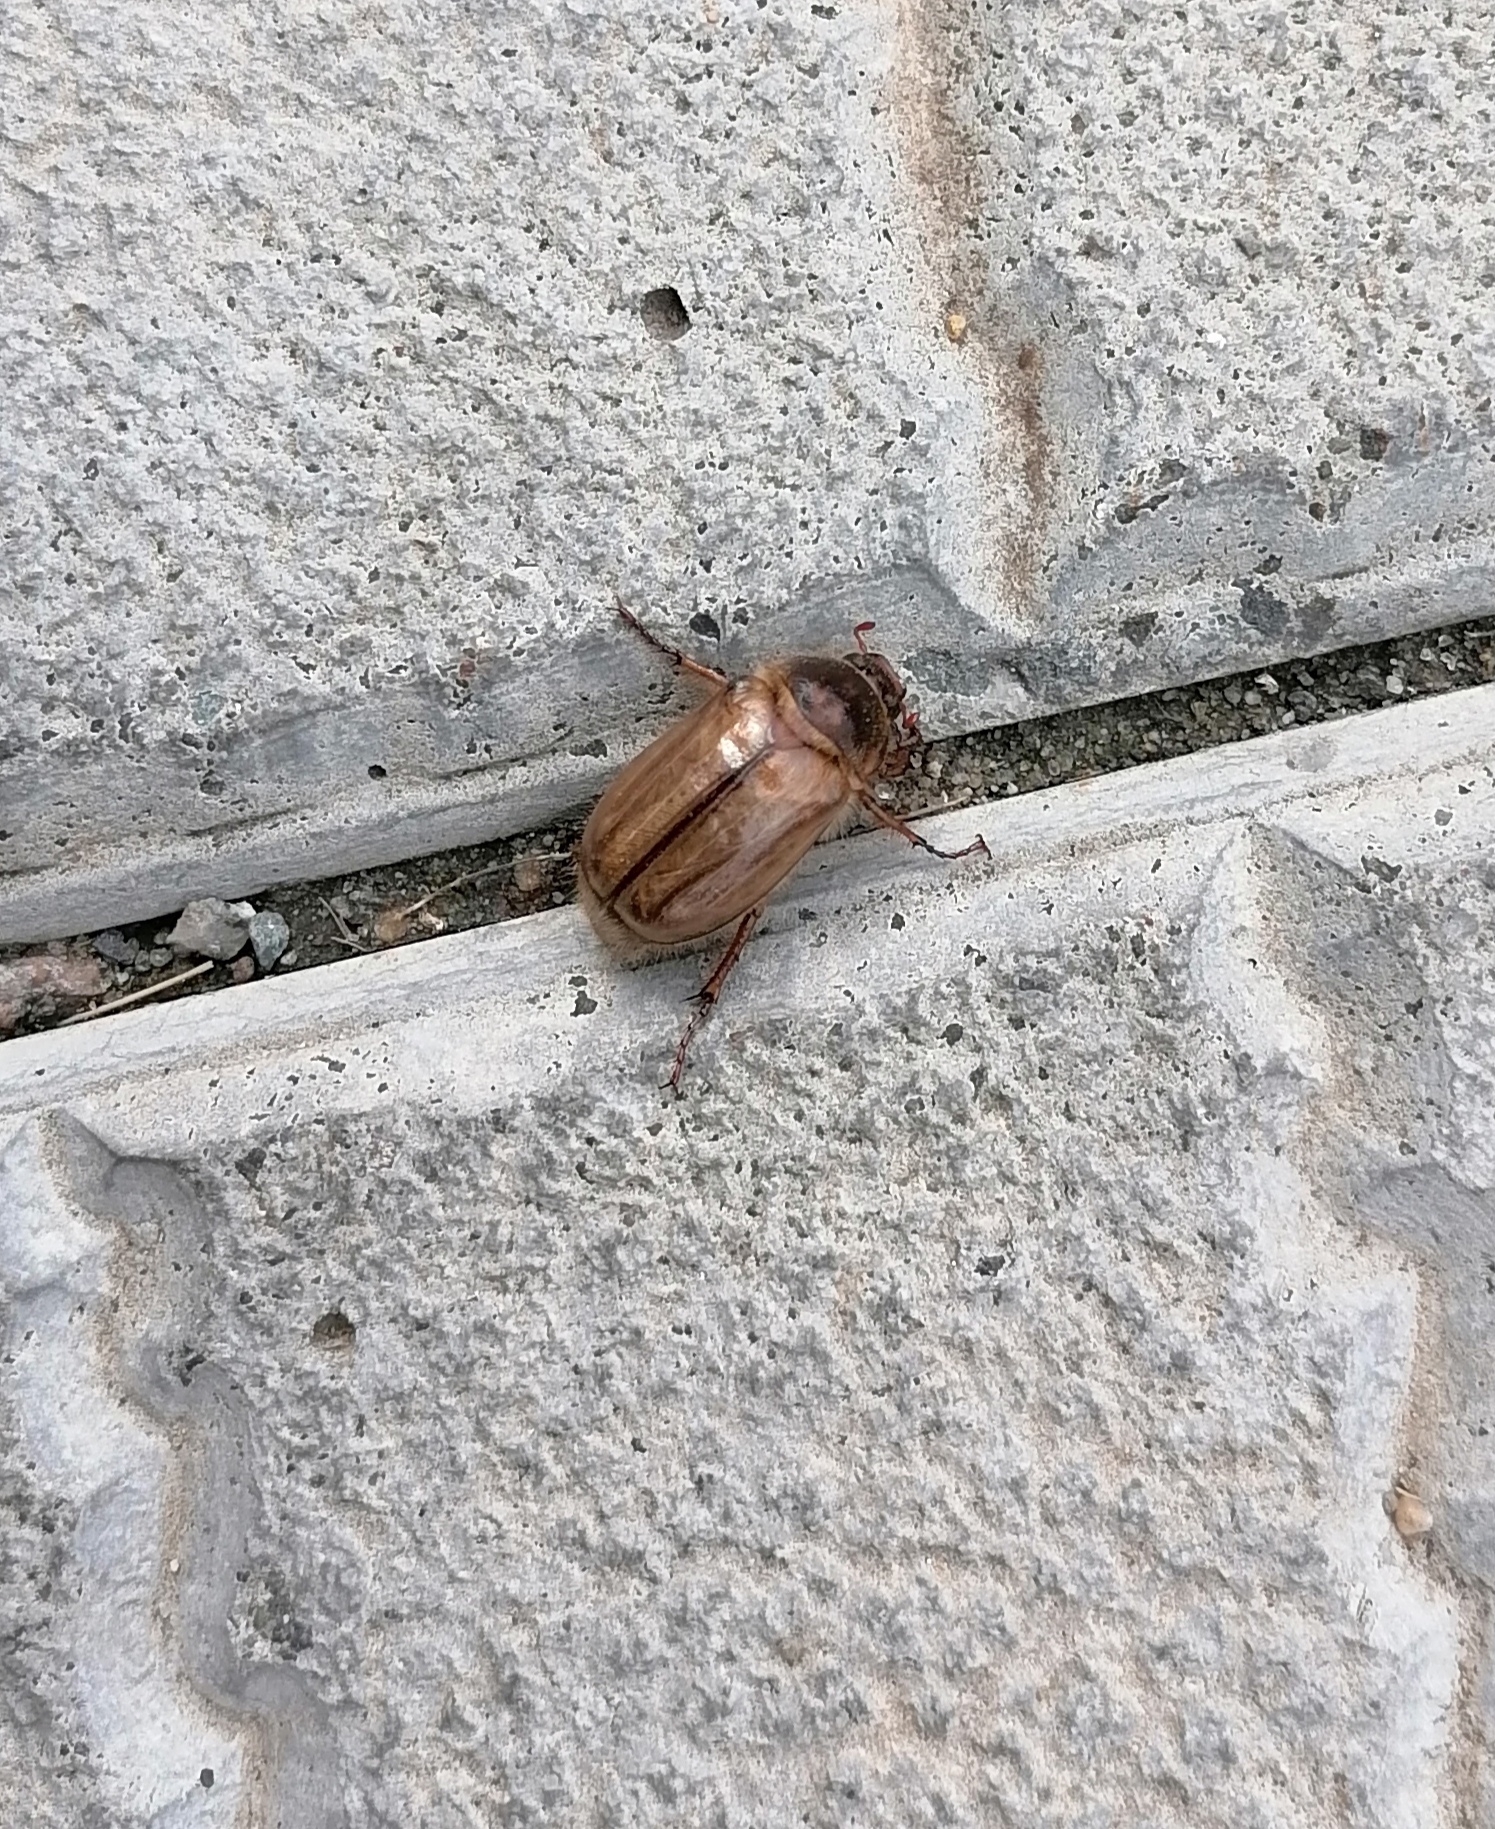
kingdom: Animalia
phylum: Arthropoda
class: Insecta
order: Coleoptera
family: Scarabaeidae
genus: Amphimallon
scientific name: Amphimallon solstitiale
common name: Summer chafer
